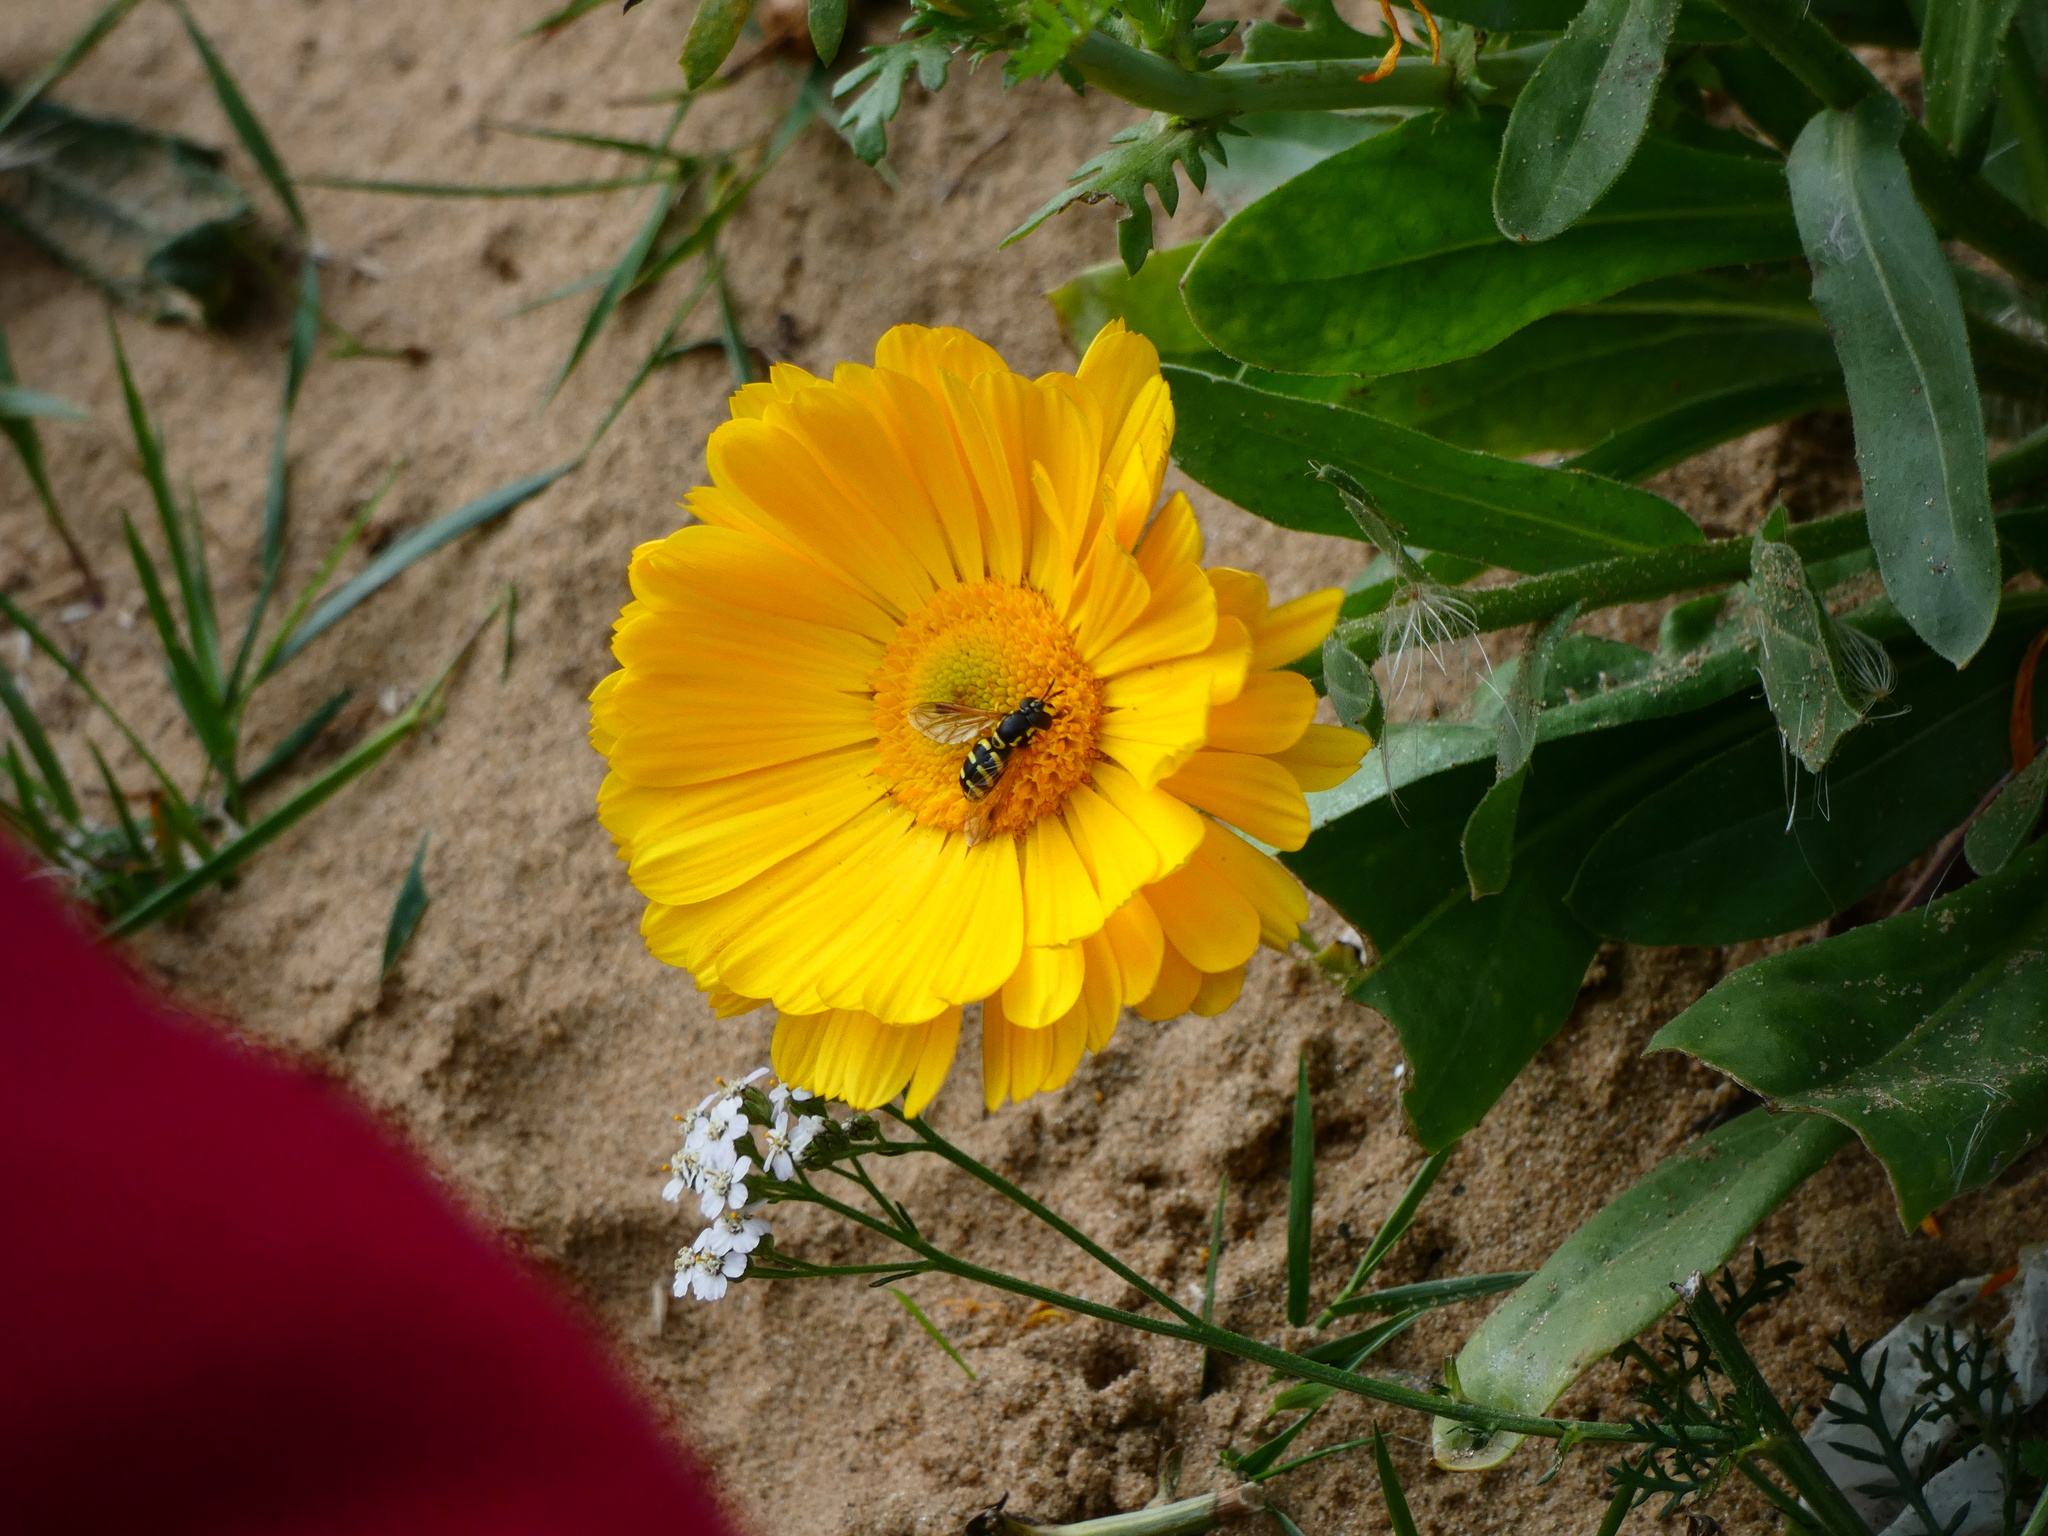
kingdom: Plantae
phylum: Tracheophyta
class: Magnoliopsida
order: Asterales
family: Asteraceae
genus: Calendula
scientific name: Calendula officinalis
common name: Pot marigold
